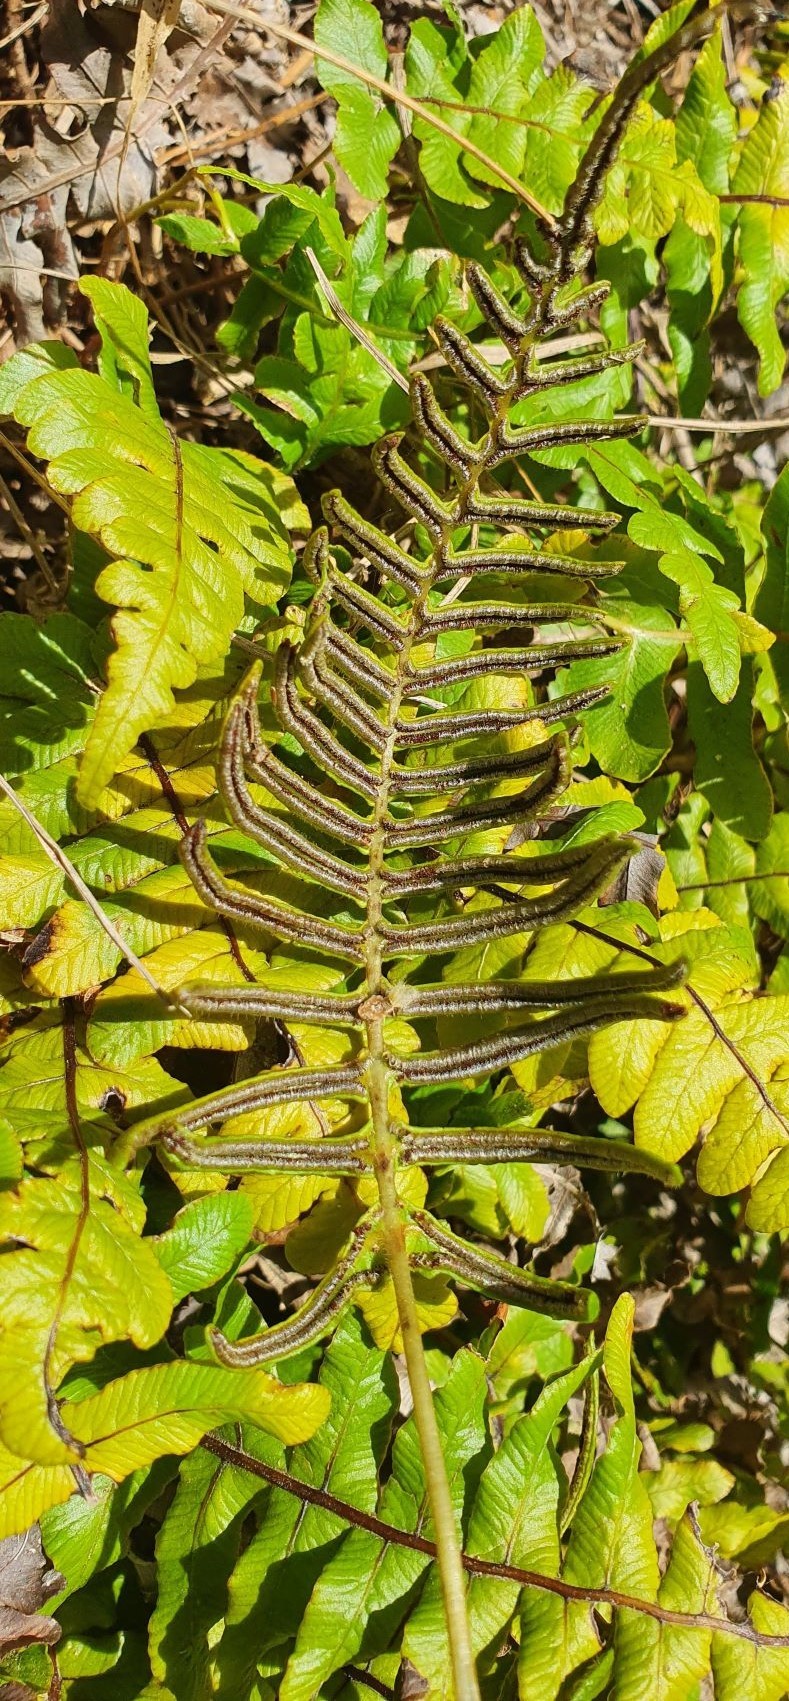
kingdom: Plantae
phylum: Tracheophyta
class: Polypodiopsida
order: Polypodiales
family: Blechnaceae
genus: Cranfillia
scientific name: Cranfillia deltoides
